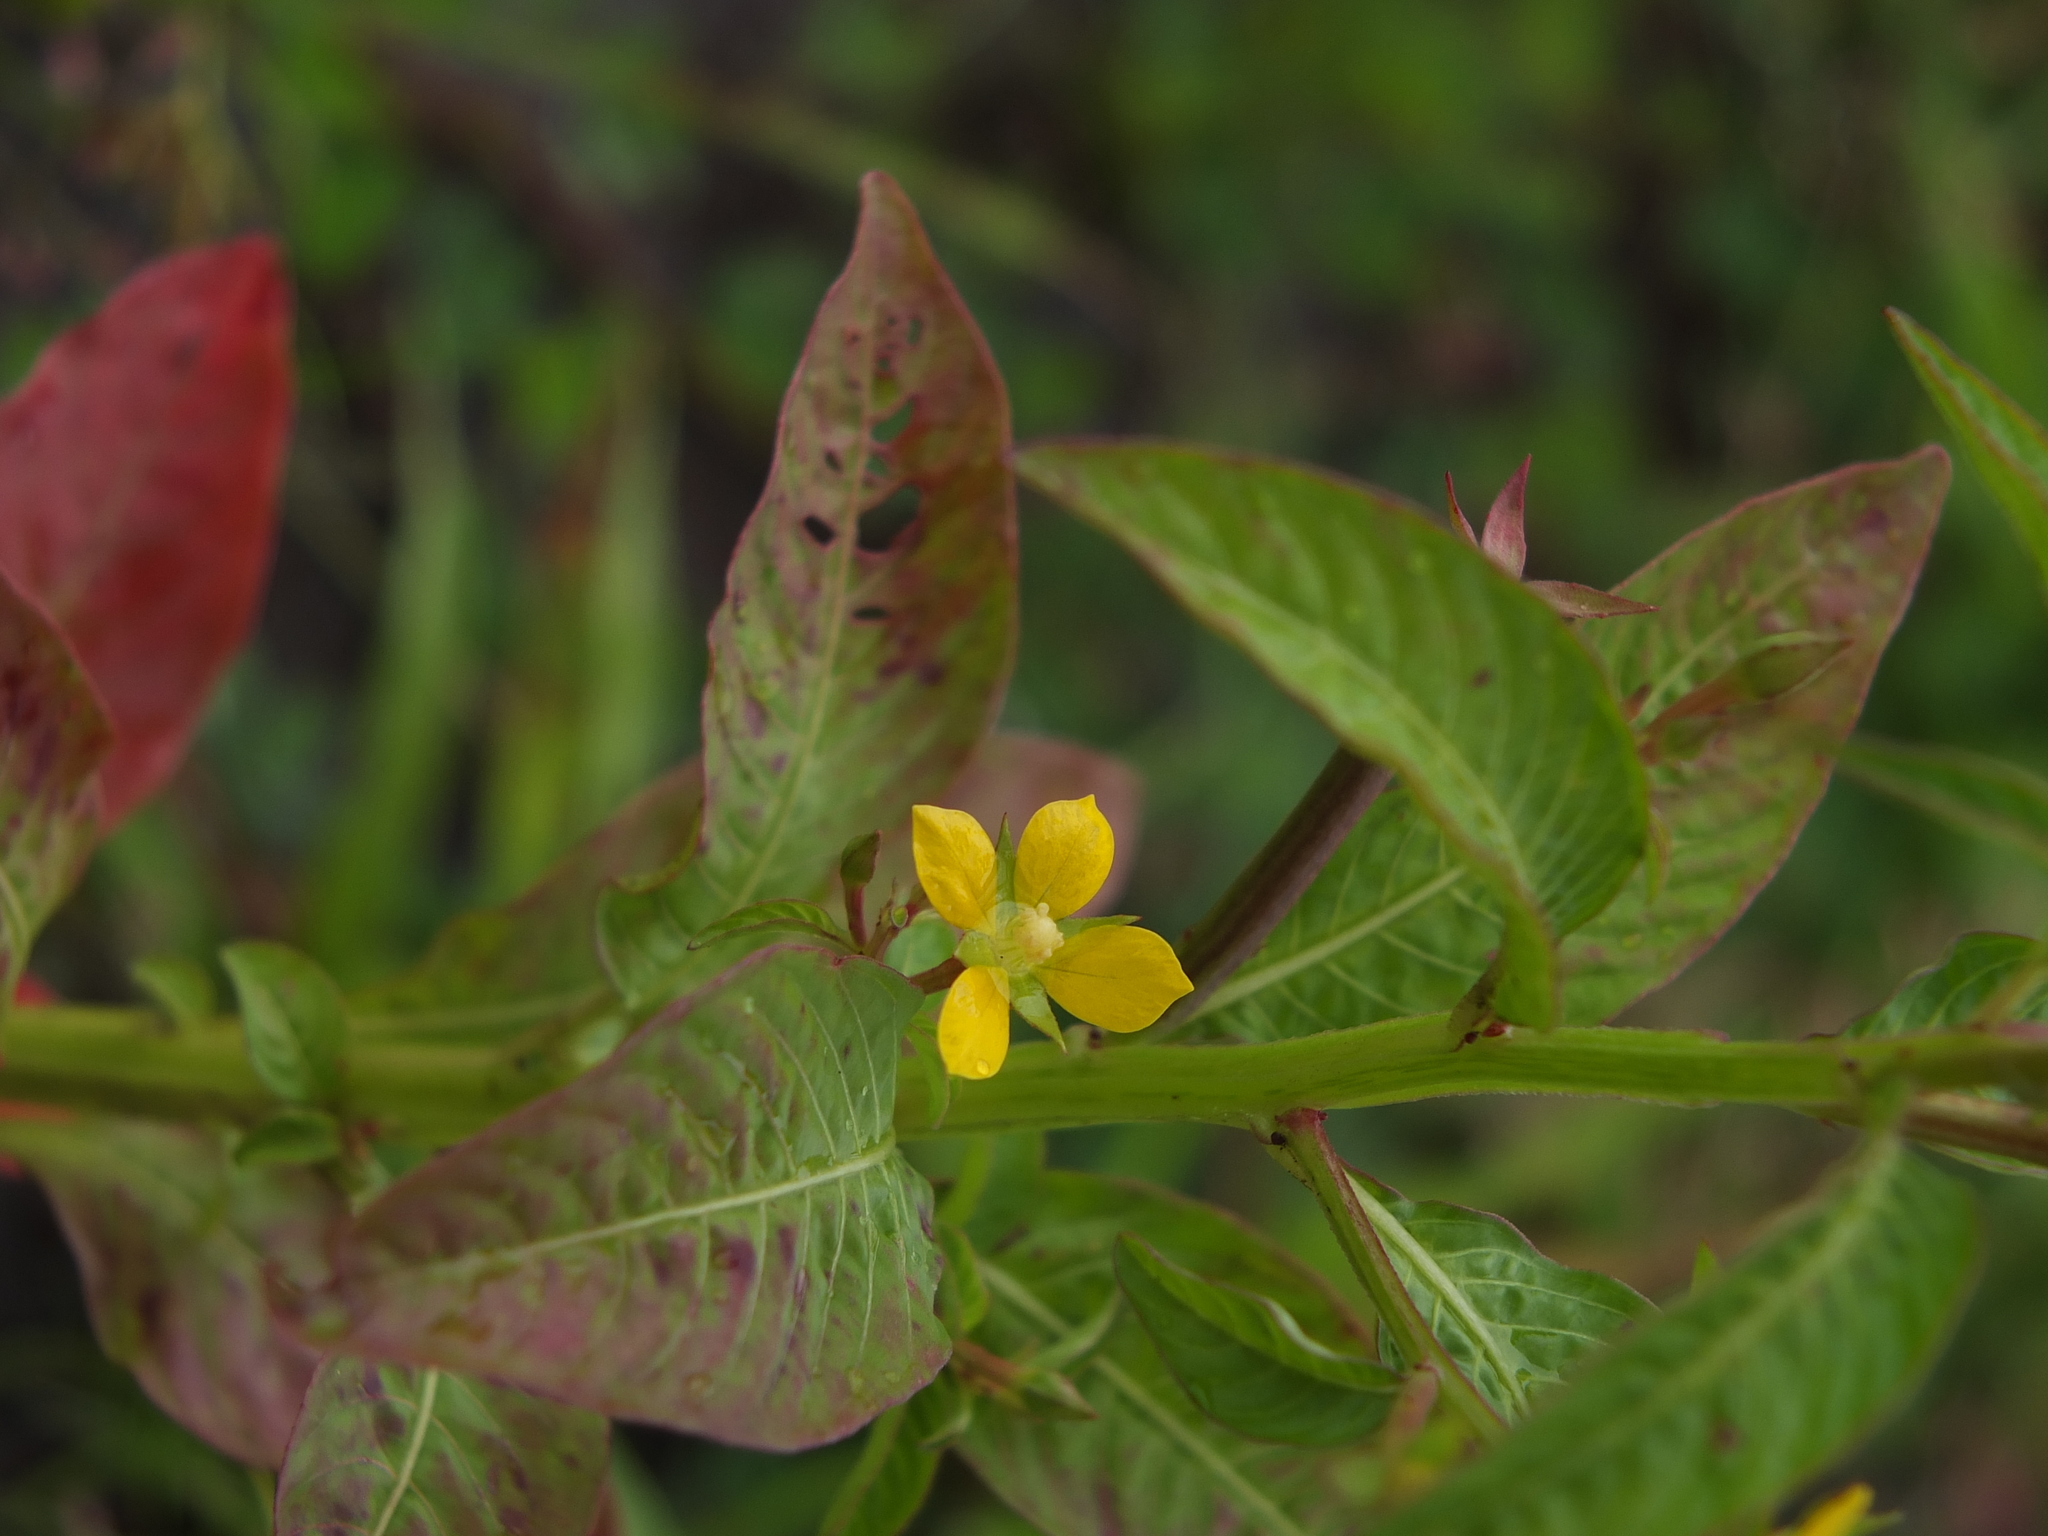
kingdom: Plantae
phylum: Tracheophyta
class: Magnoliopsida
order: Myrtales
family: Onagraceae
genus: Ludwigia
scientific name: Ludwigia hyssopifolia
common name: Linear leaf water primrose
